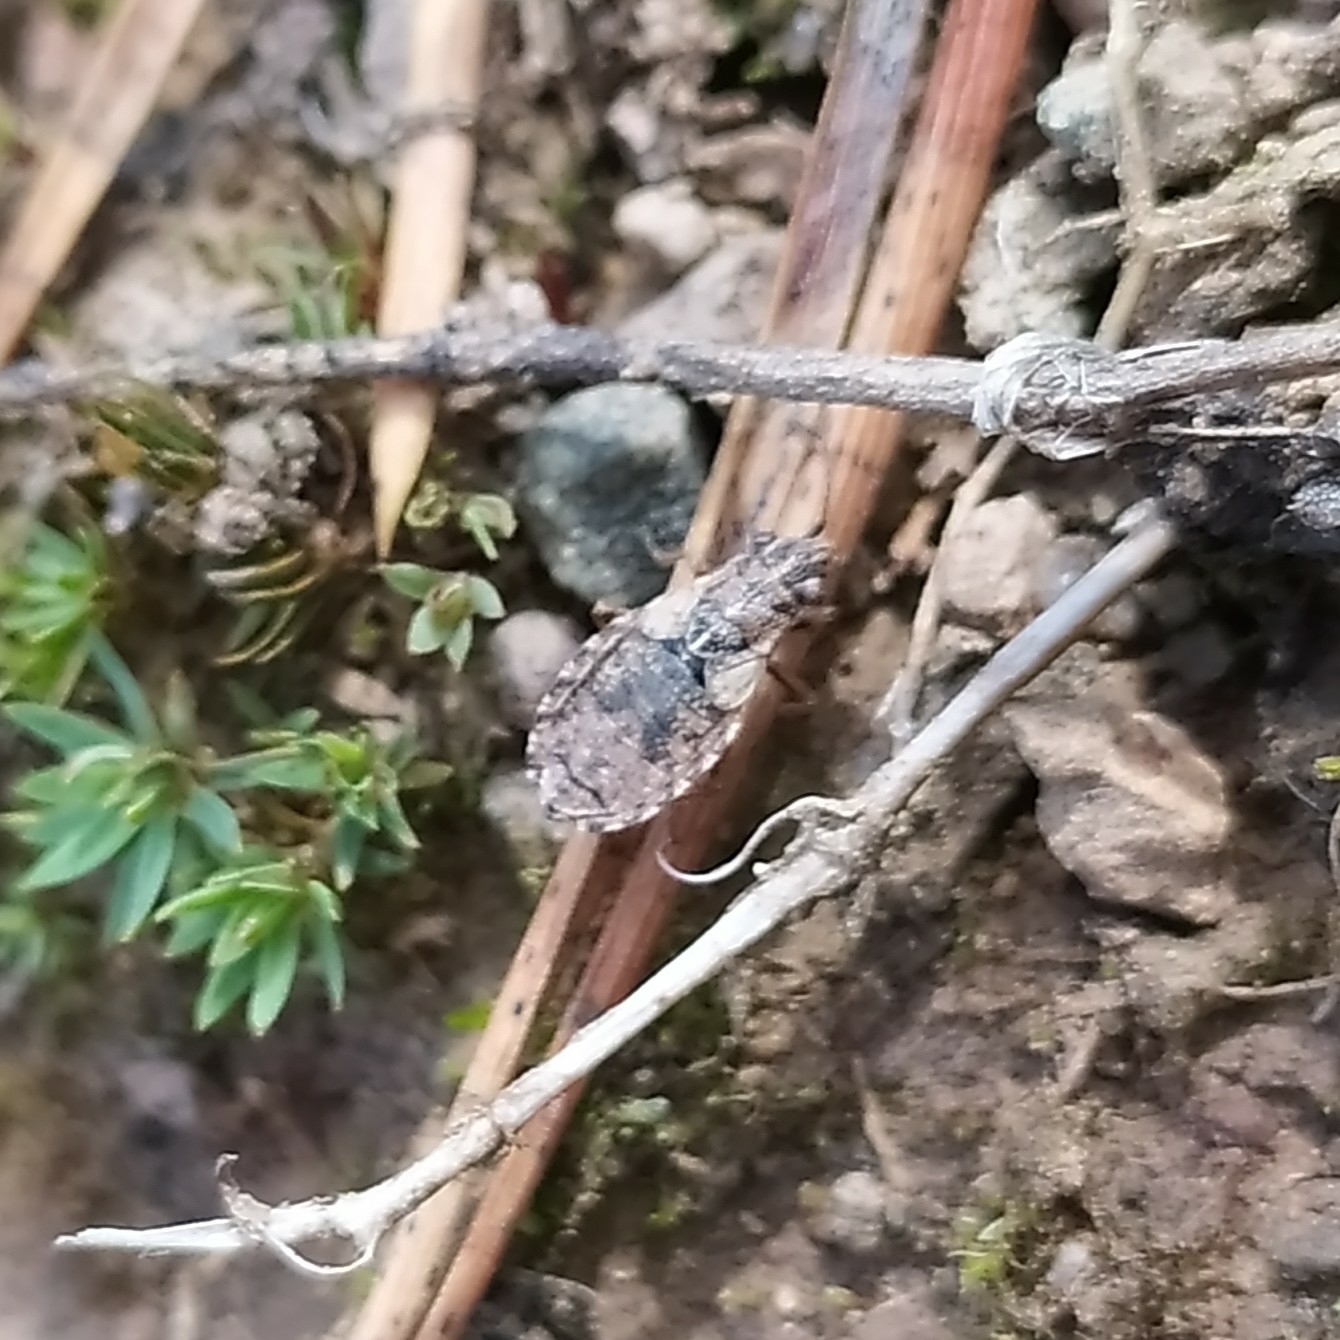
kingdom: Animalia
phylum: Arthropoda
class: Insecta
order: Hemiptera
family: Lygaeidae
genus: Nithecus
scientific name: Nithecus jacobaeae
